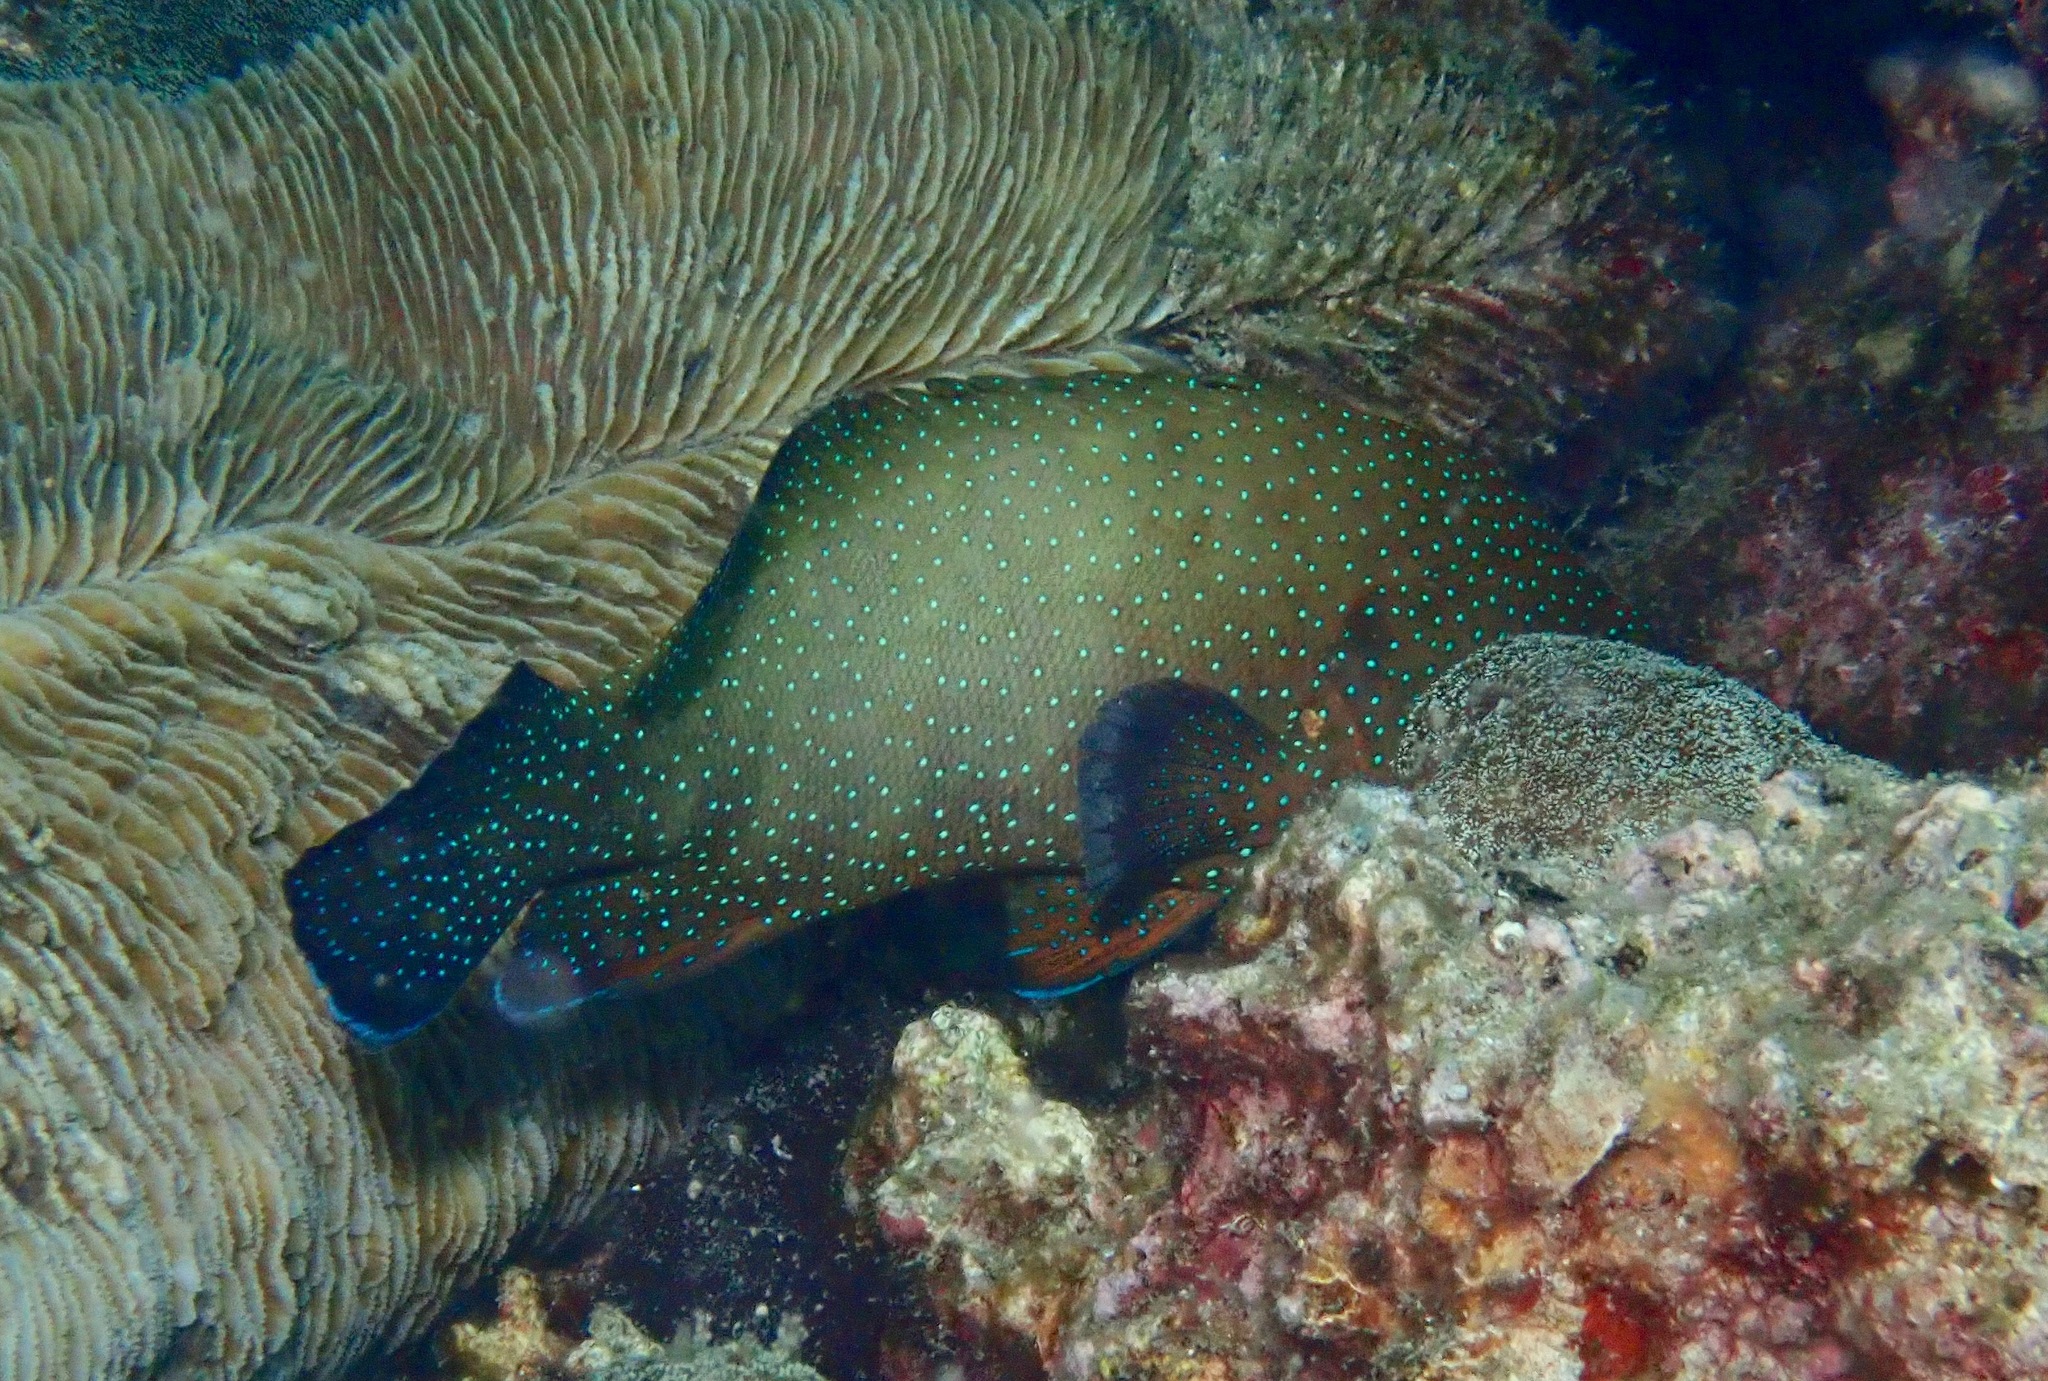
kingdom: Animalia
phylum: Chordata
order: Perciformes
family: Serranidae
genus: Cephalopholis
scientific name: Cephalopholis polyspila
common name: Starry grouper
